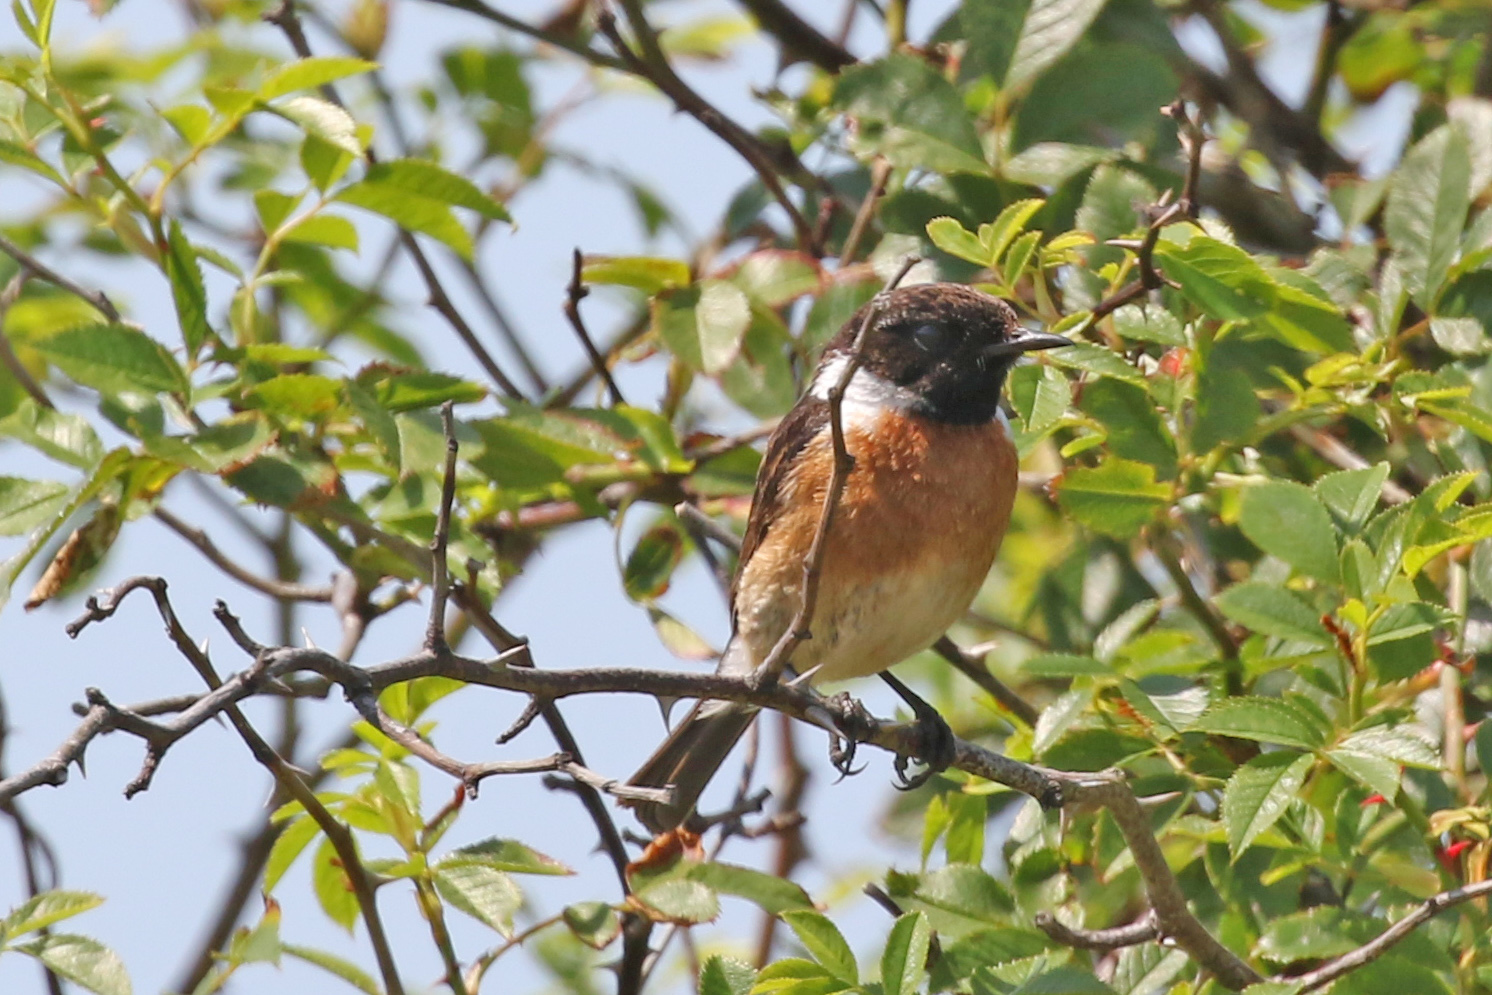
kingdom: Animalia
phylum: Chordata
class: Aves
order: Passeriformes
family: Muscicapidae
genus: Saxicola
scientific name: Saxicola rubicola
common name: European stonechat
